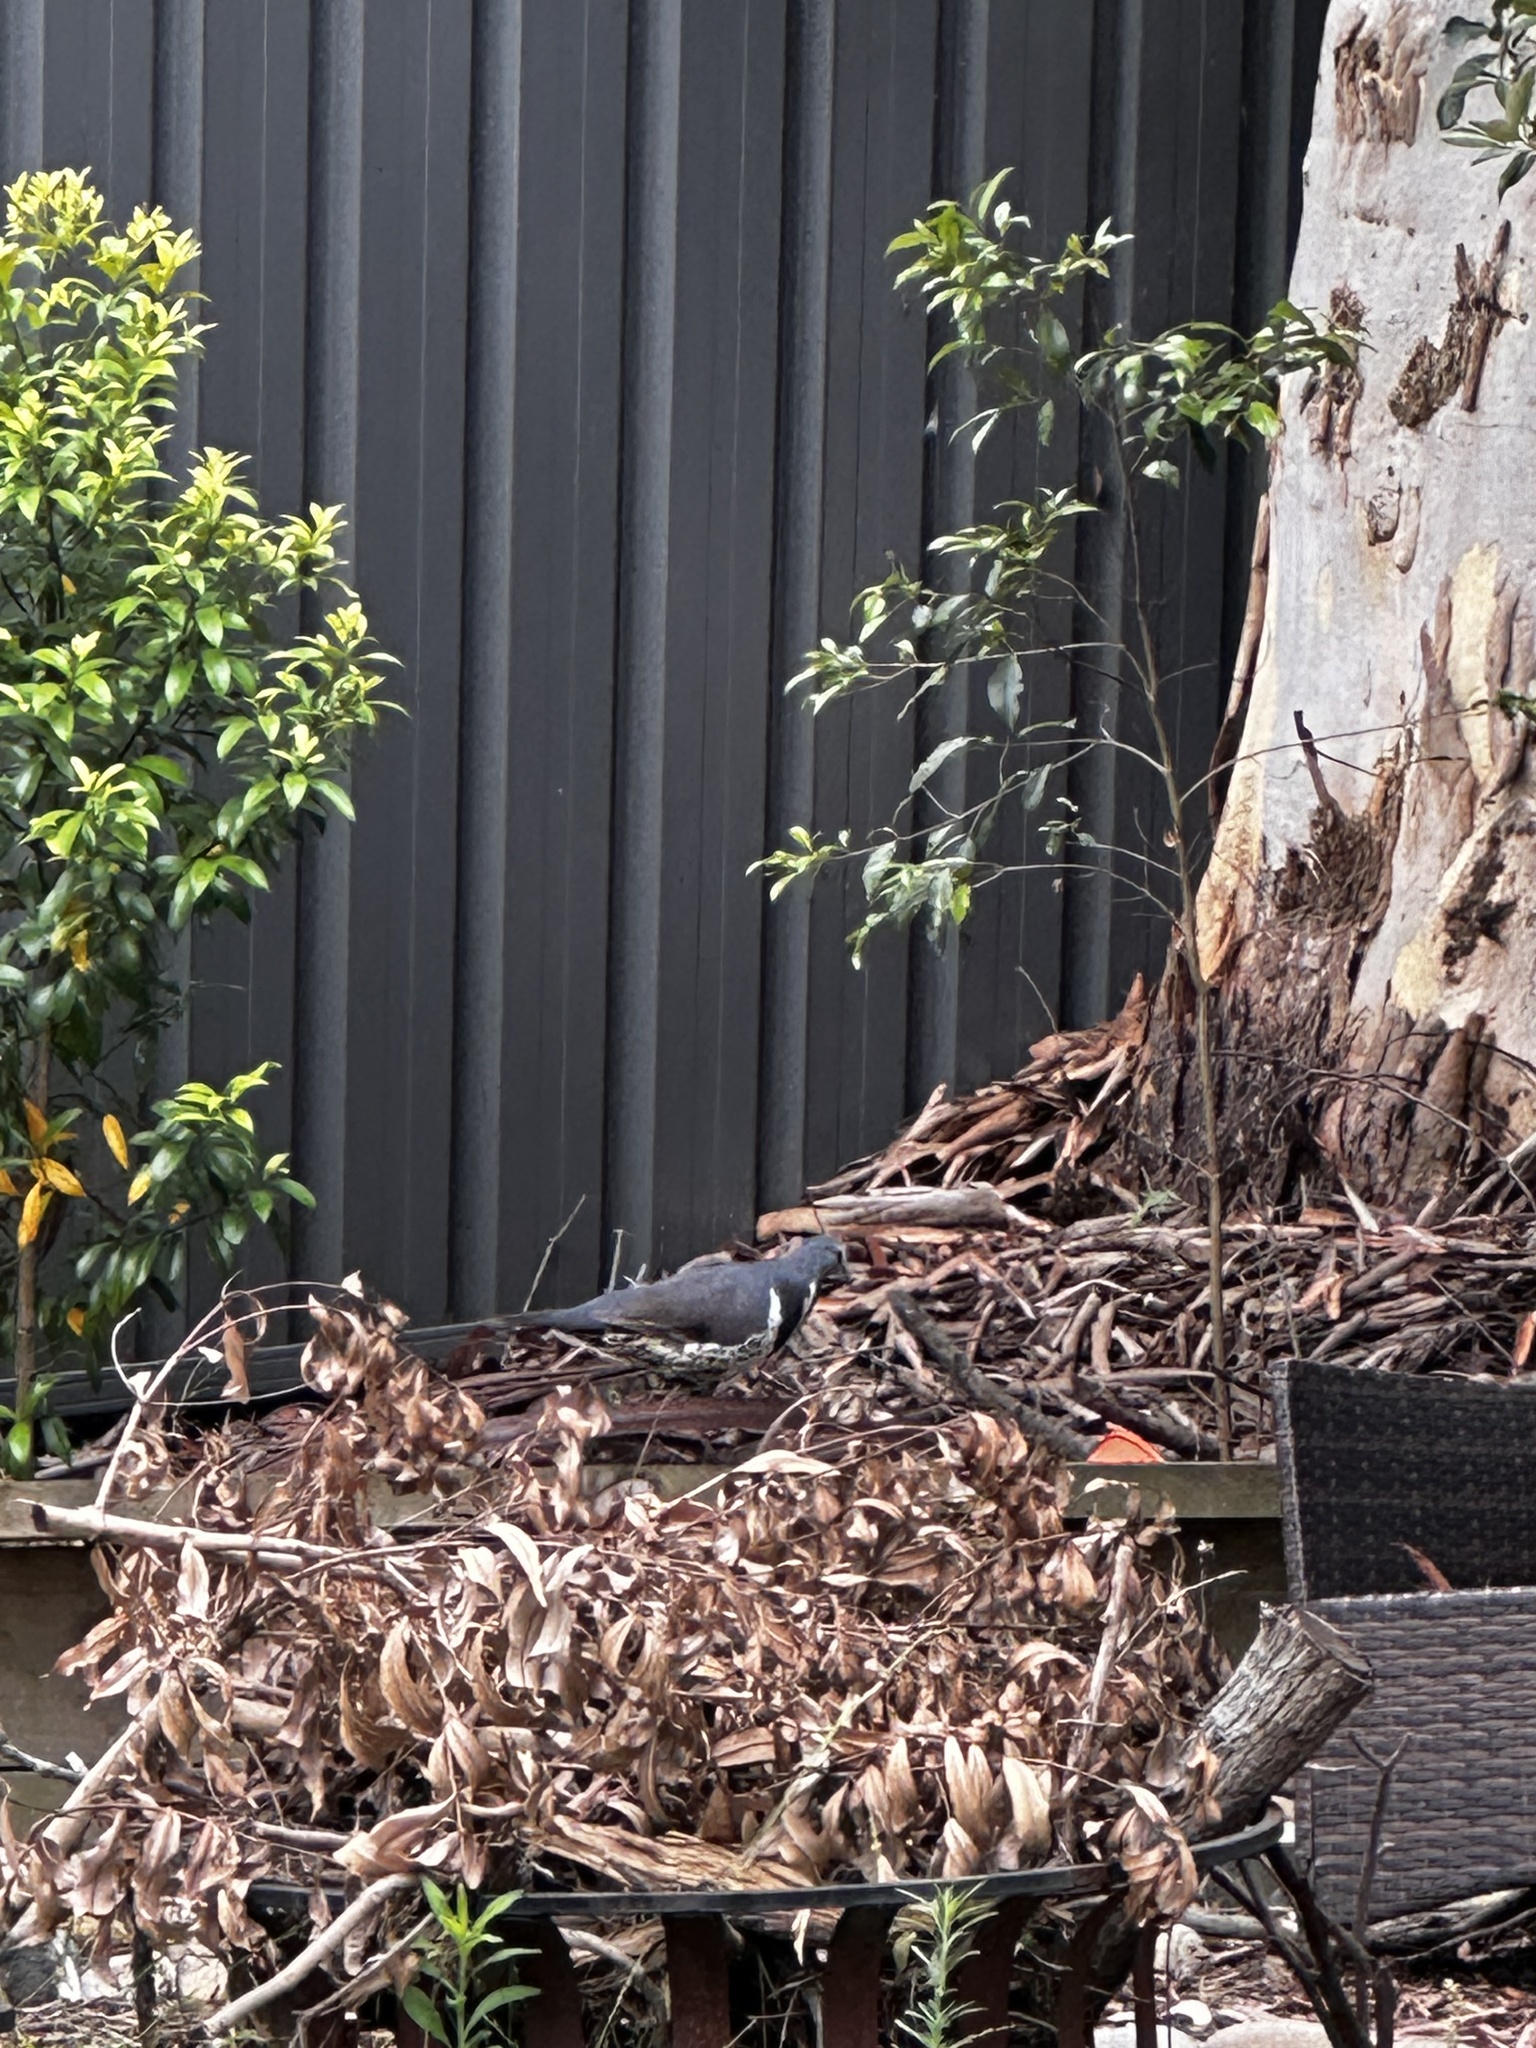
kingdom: Animalia
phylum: Chordata
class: Aves
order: Columbiformes
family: Columbidae
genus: Leucosarcia
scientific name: Leucosarcia melanoleuca
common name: Wonga pigeon
